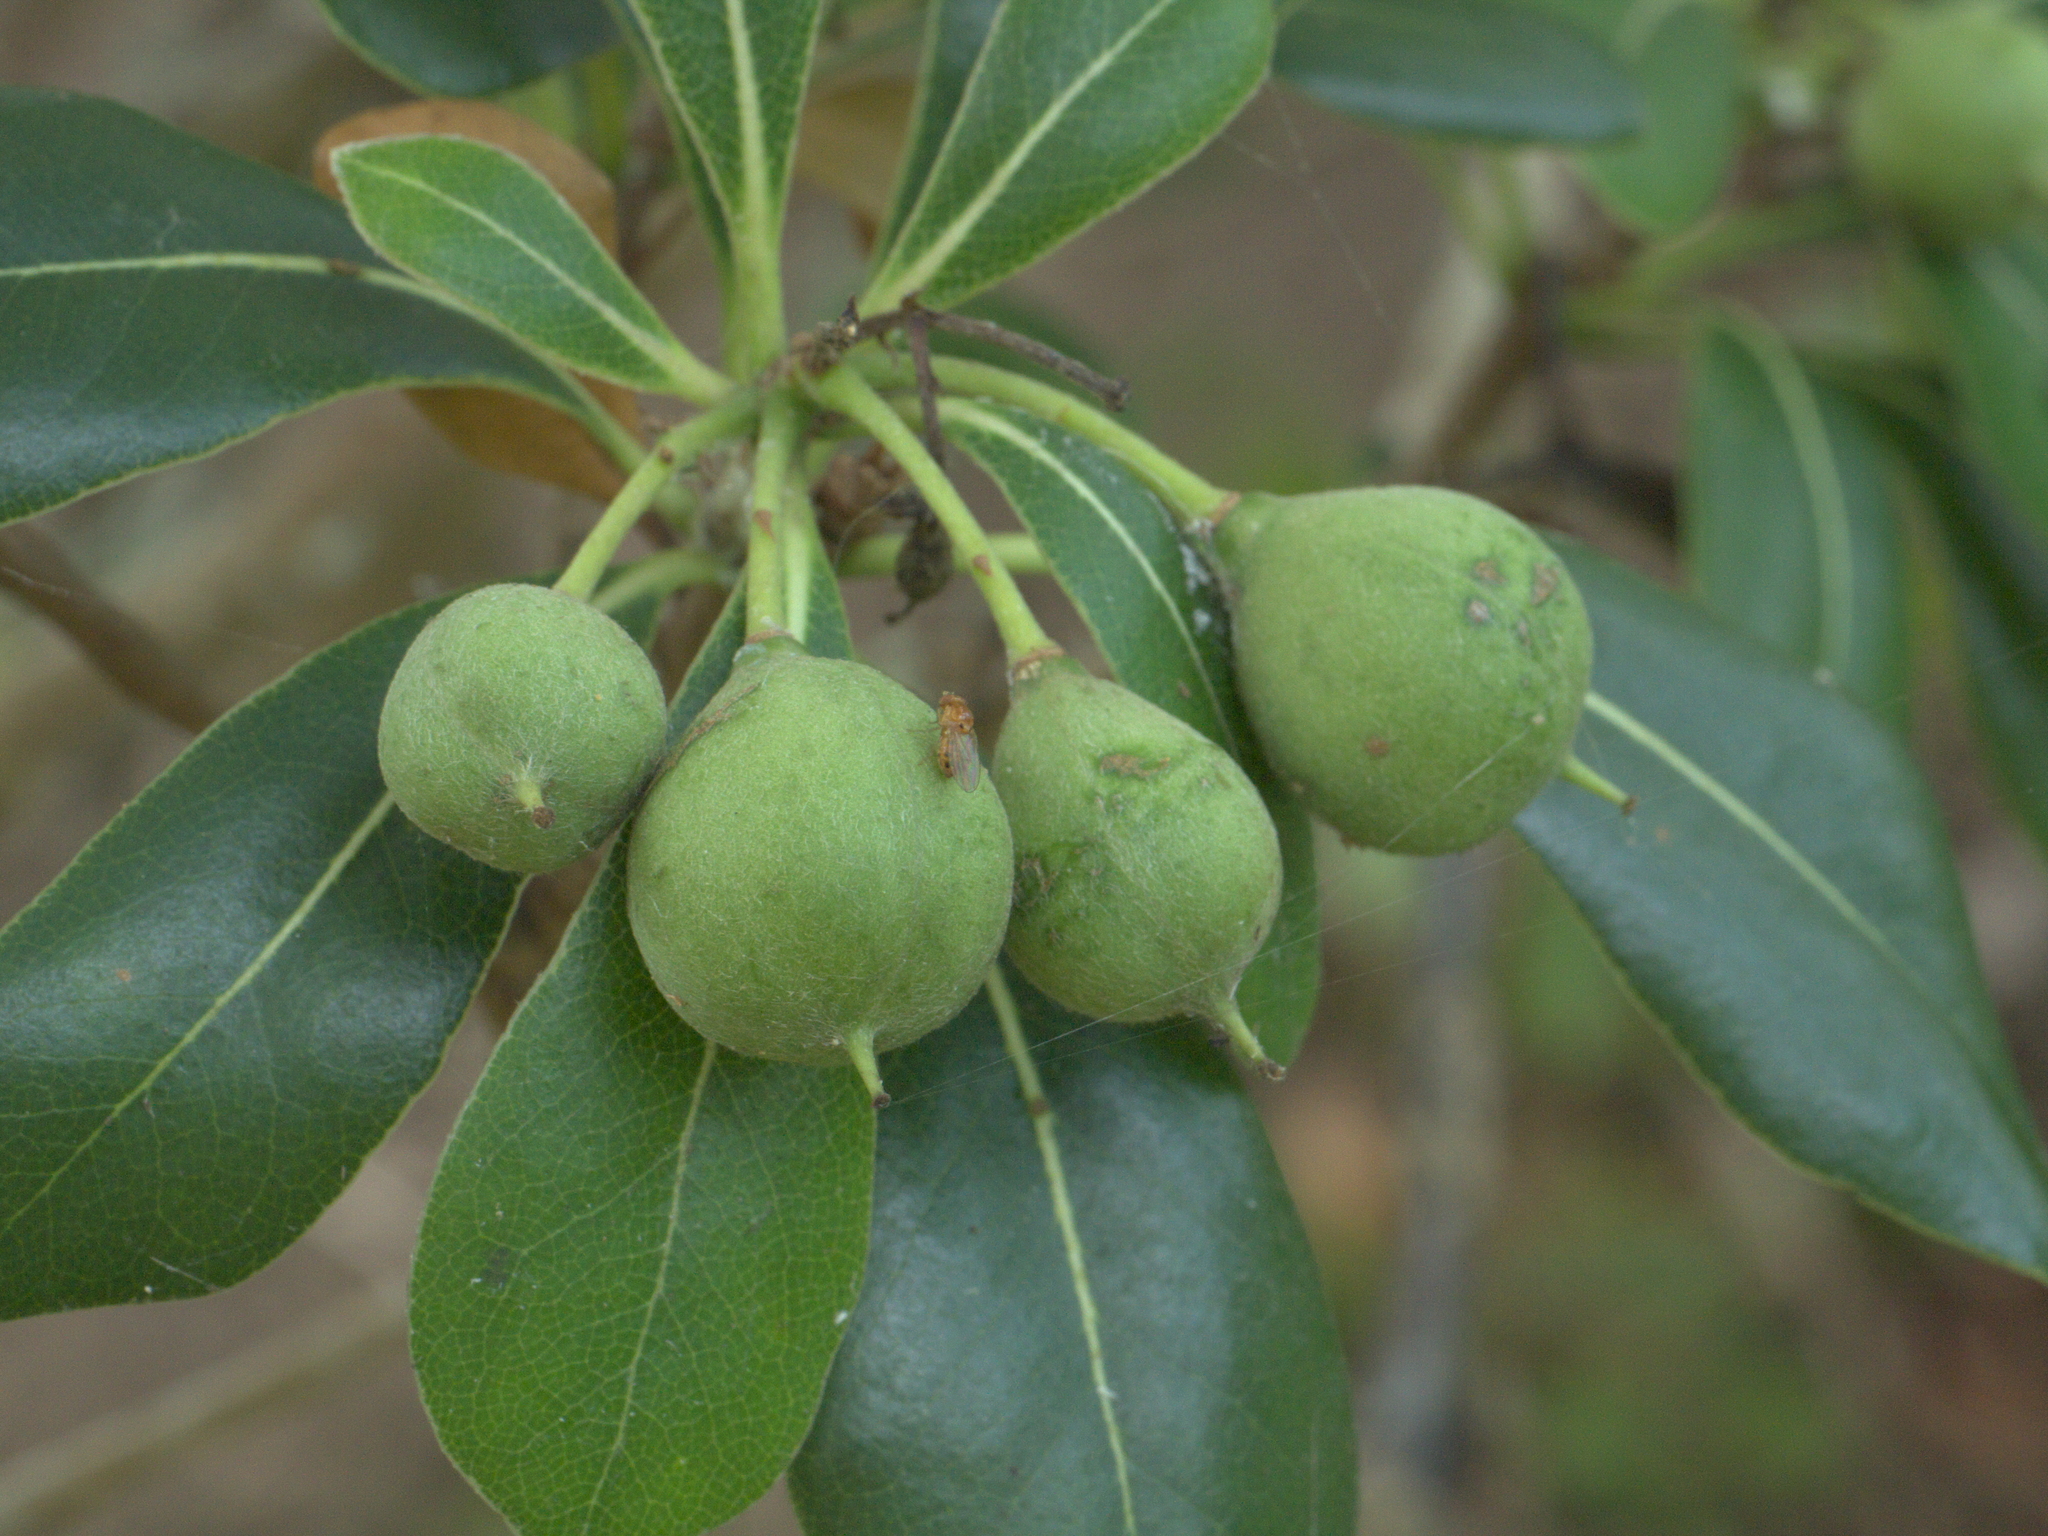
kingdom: Plantae
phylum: Tracheophyta
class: Magnoliopsida
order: Apiales
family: Pittosporaceae
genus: Pittosporum
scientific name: Pittosporum tobira
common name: Japanese cheesewood
